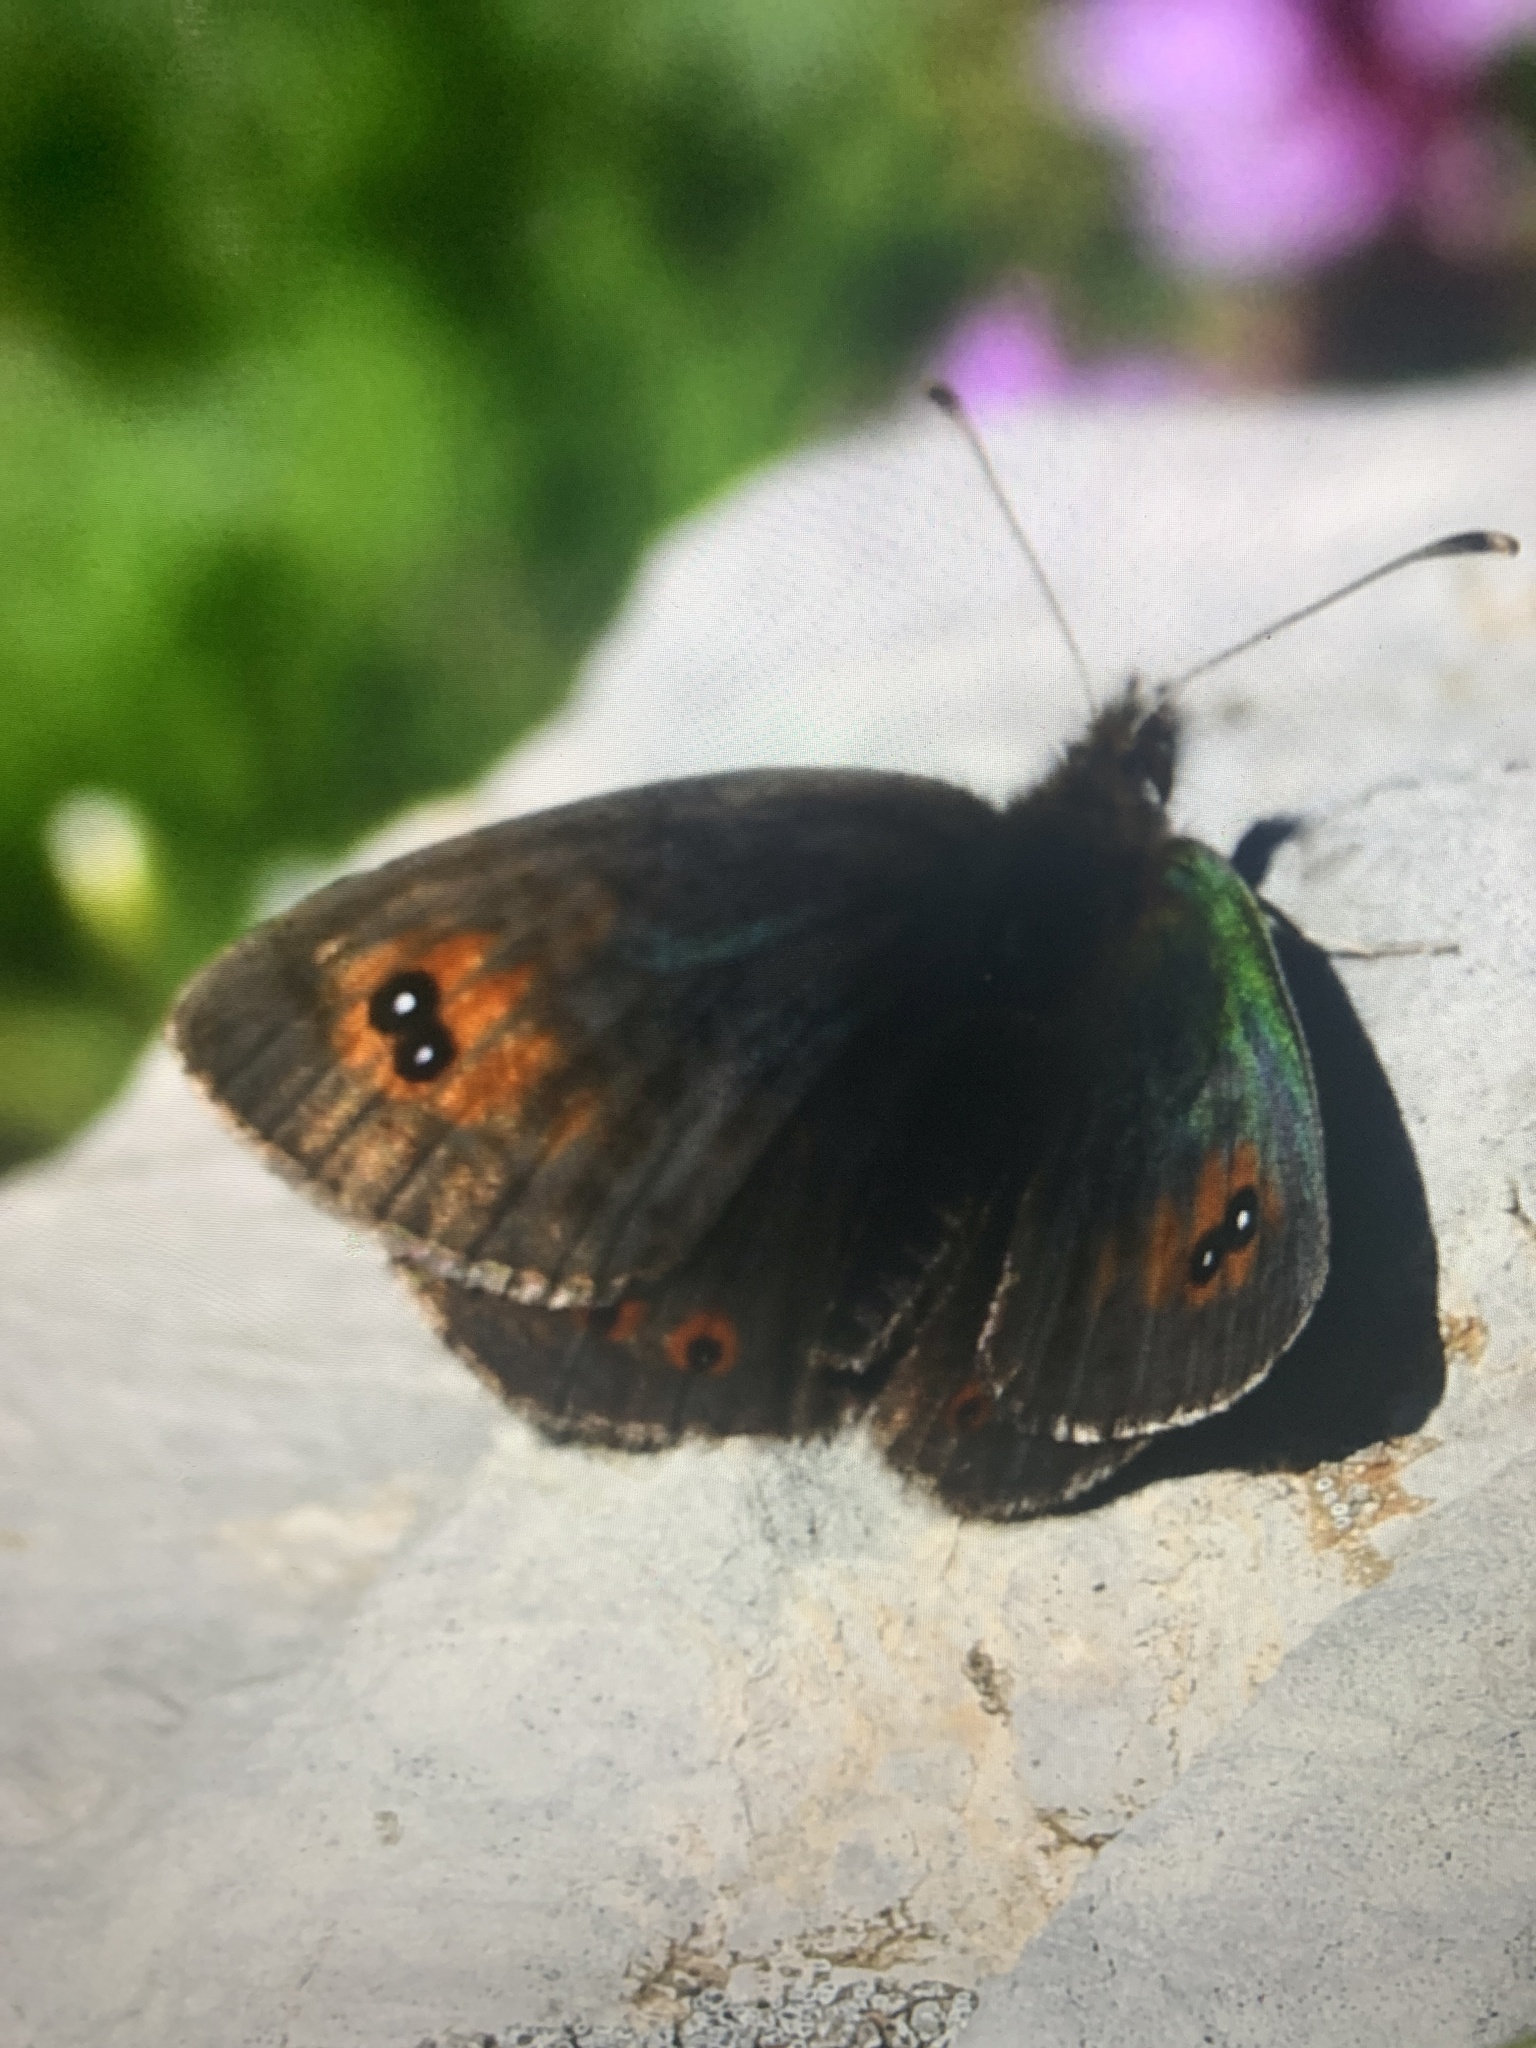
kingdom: Animalia
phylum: Arthropoda
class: Insecta
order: Lepidoptera
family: Nymphalidae
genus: Erebia
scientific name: Erebia cassioides
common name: Common brassy ringlet
